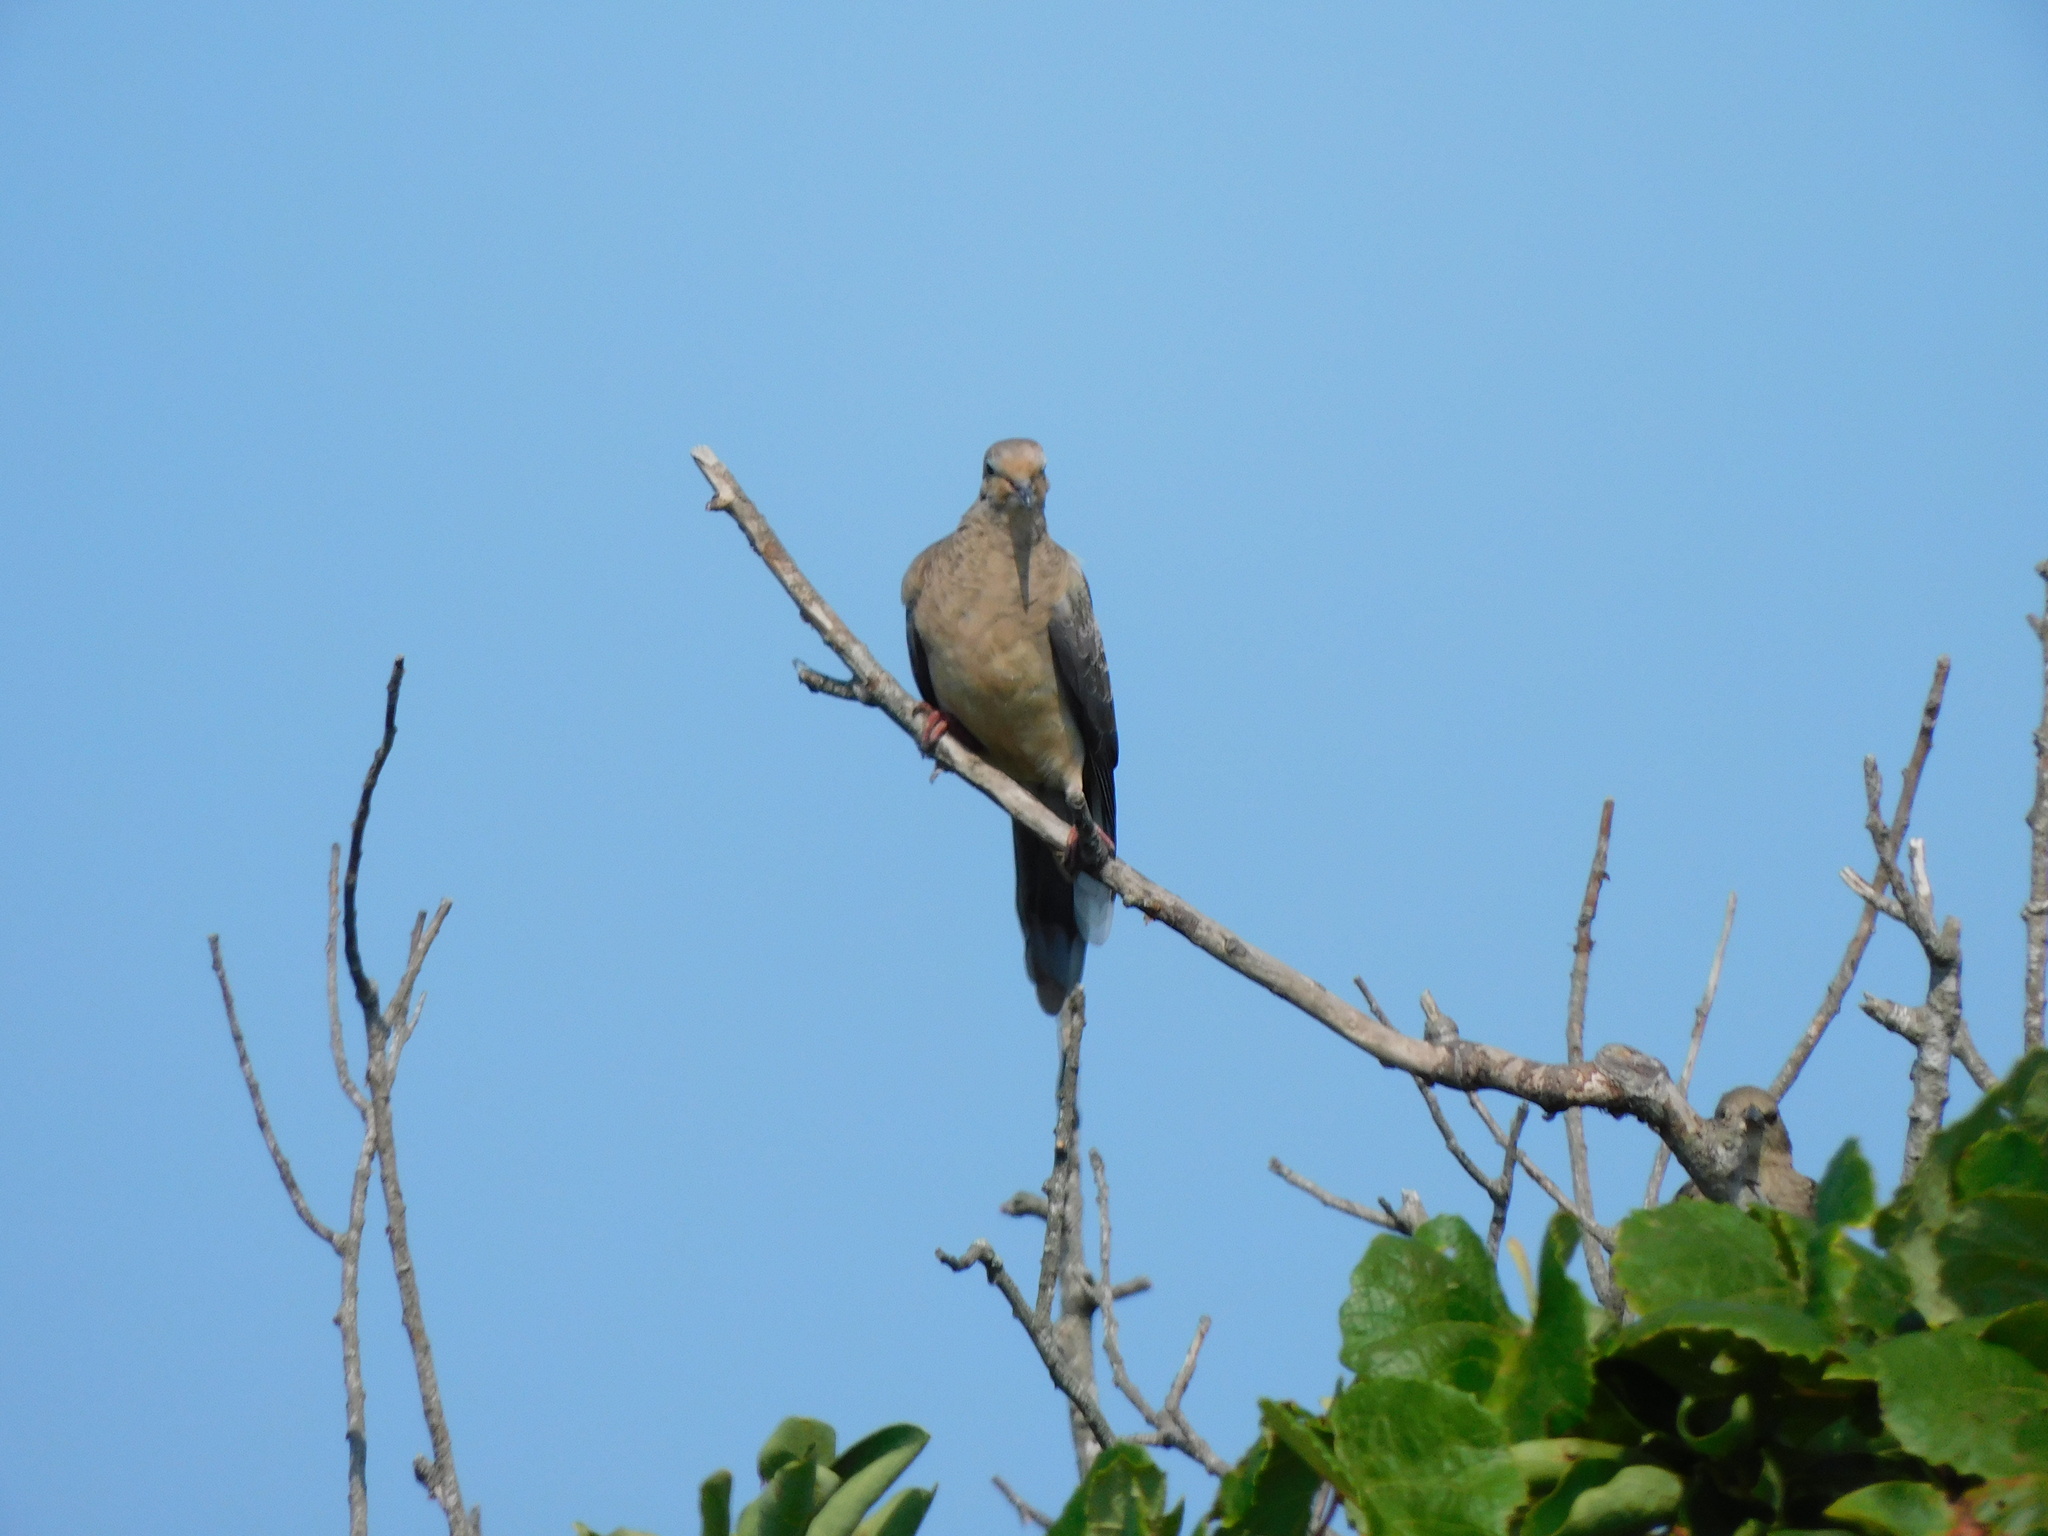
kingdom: Animalia
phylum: Chordata
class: Aves
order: Columbiformes
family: Columbidae
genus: Zenaida
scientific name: Zenaida macroura
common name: Mourning dove
